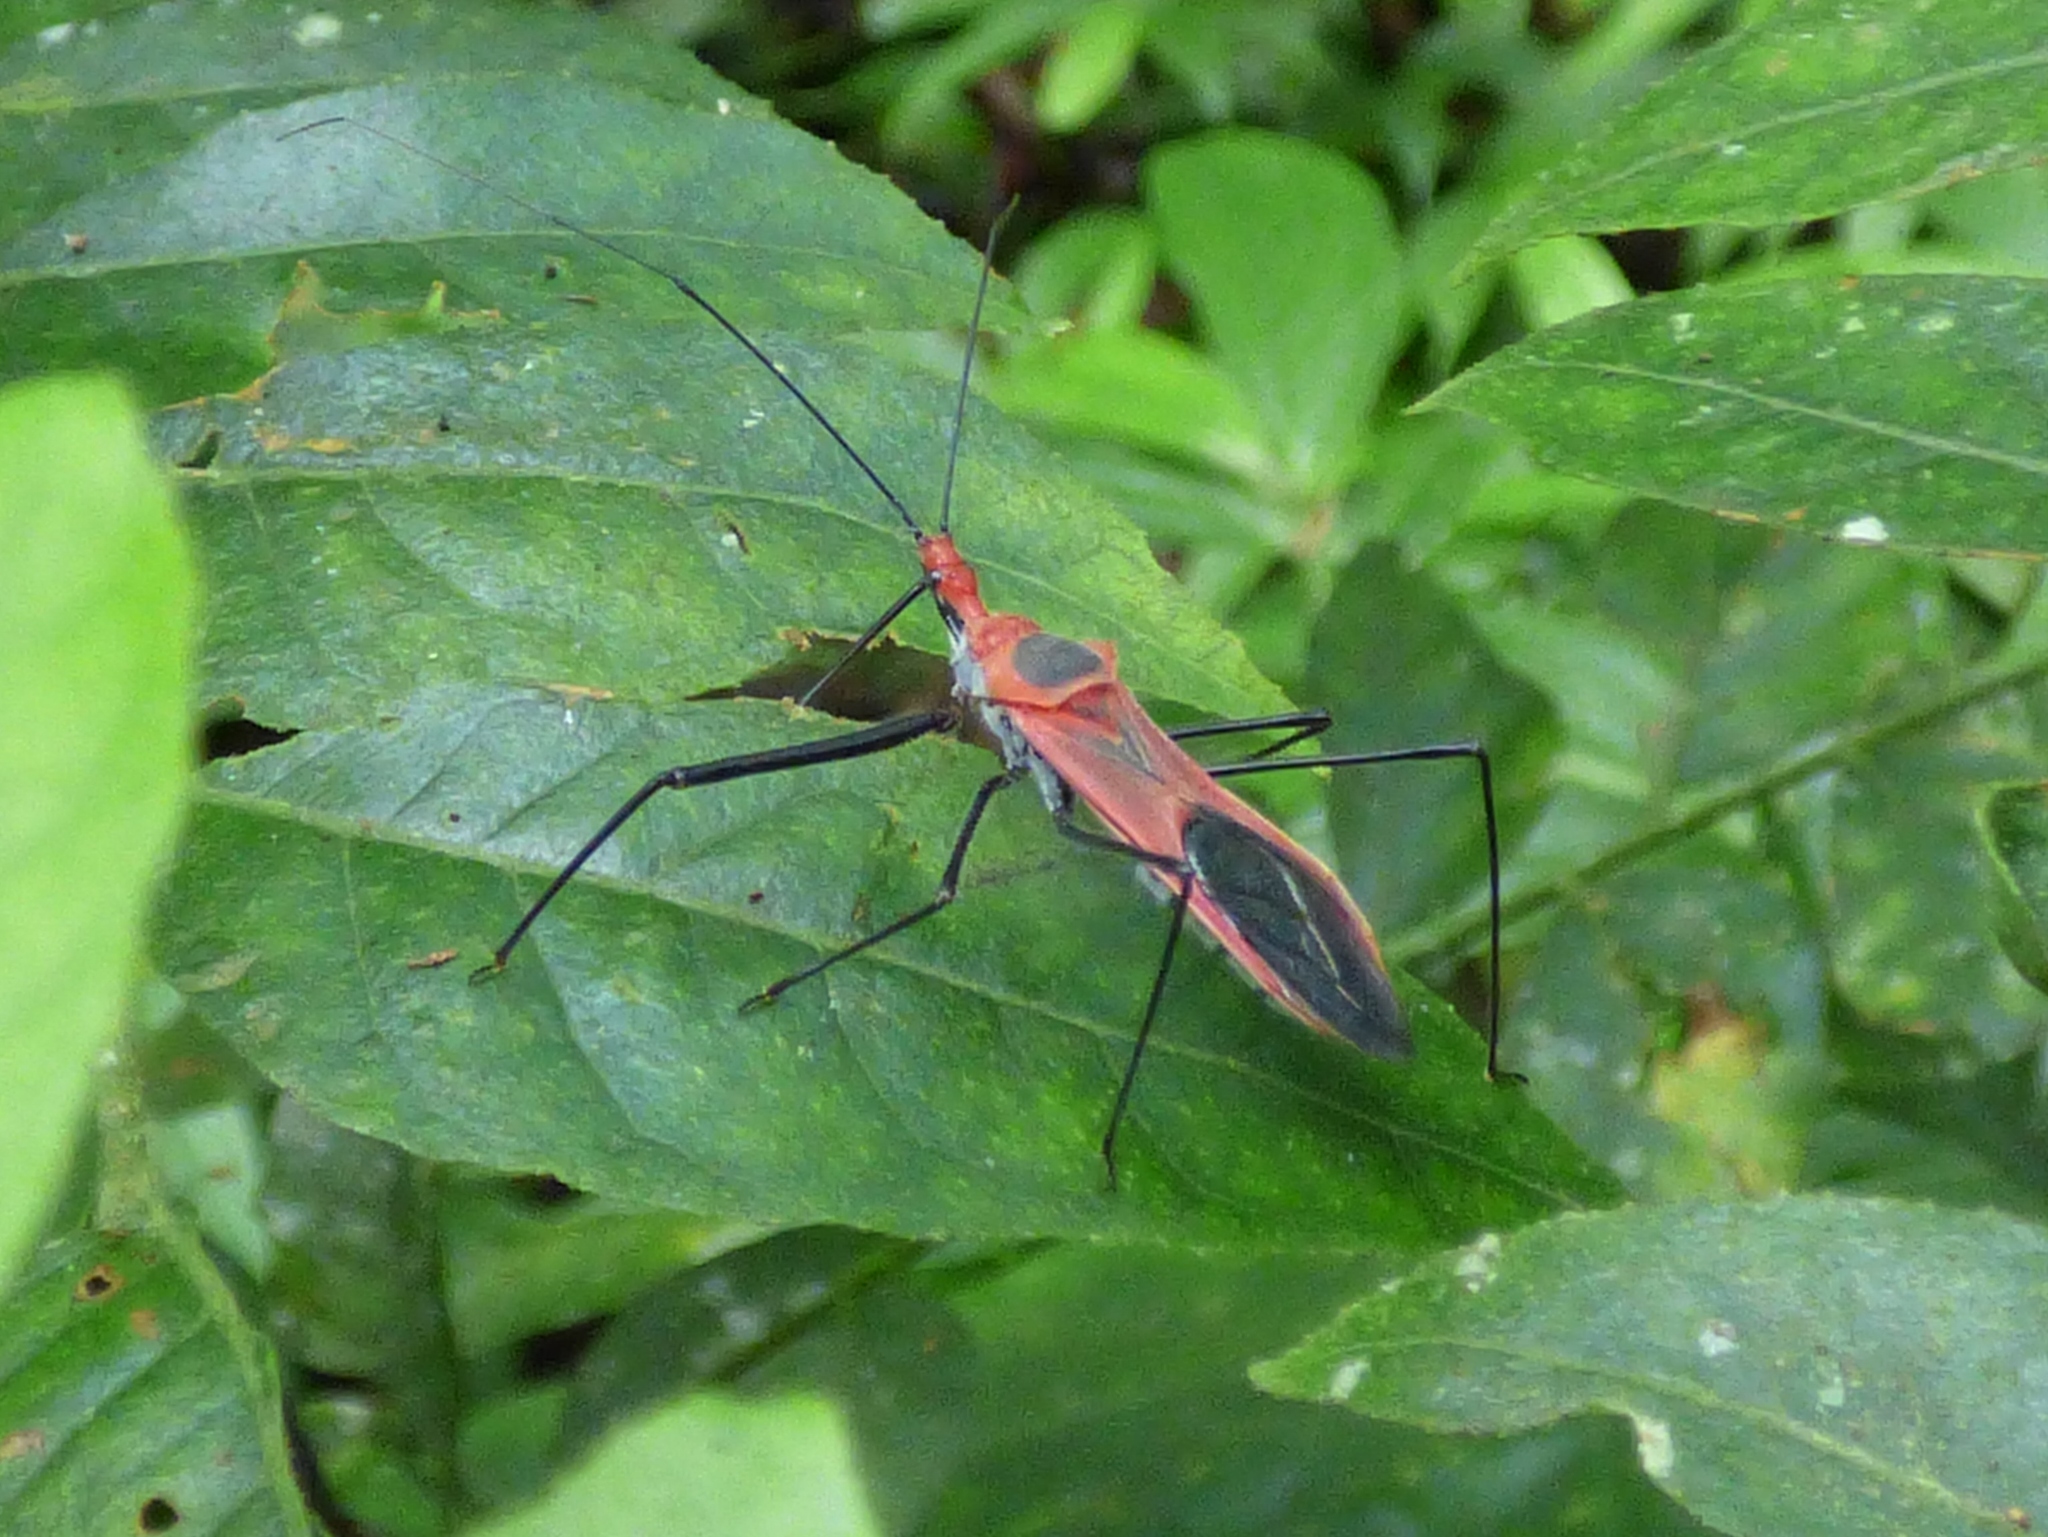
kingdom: Animalia
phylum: Arthropoda
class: Insecta
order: Hemiptera
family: Reduviidae
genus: Villanovanus
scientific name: Villanovanus nigrorufus
